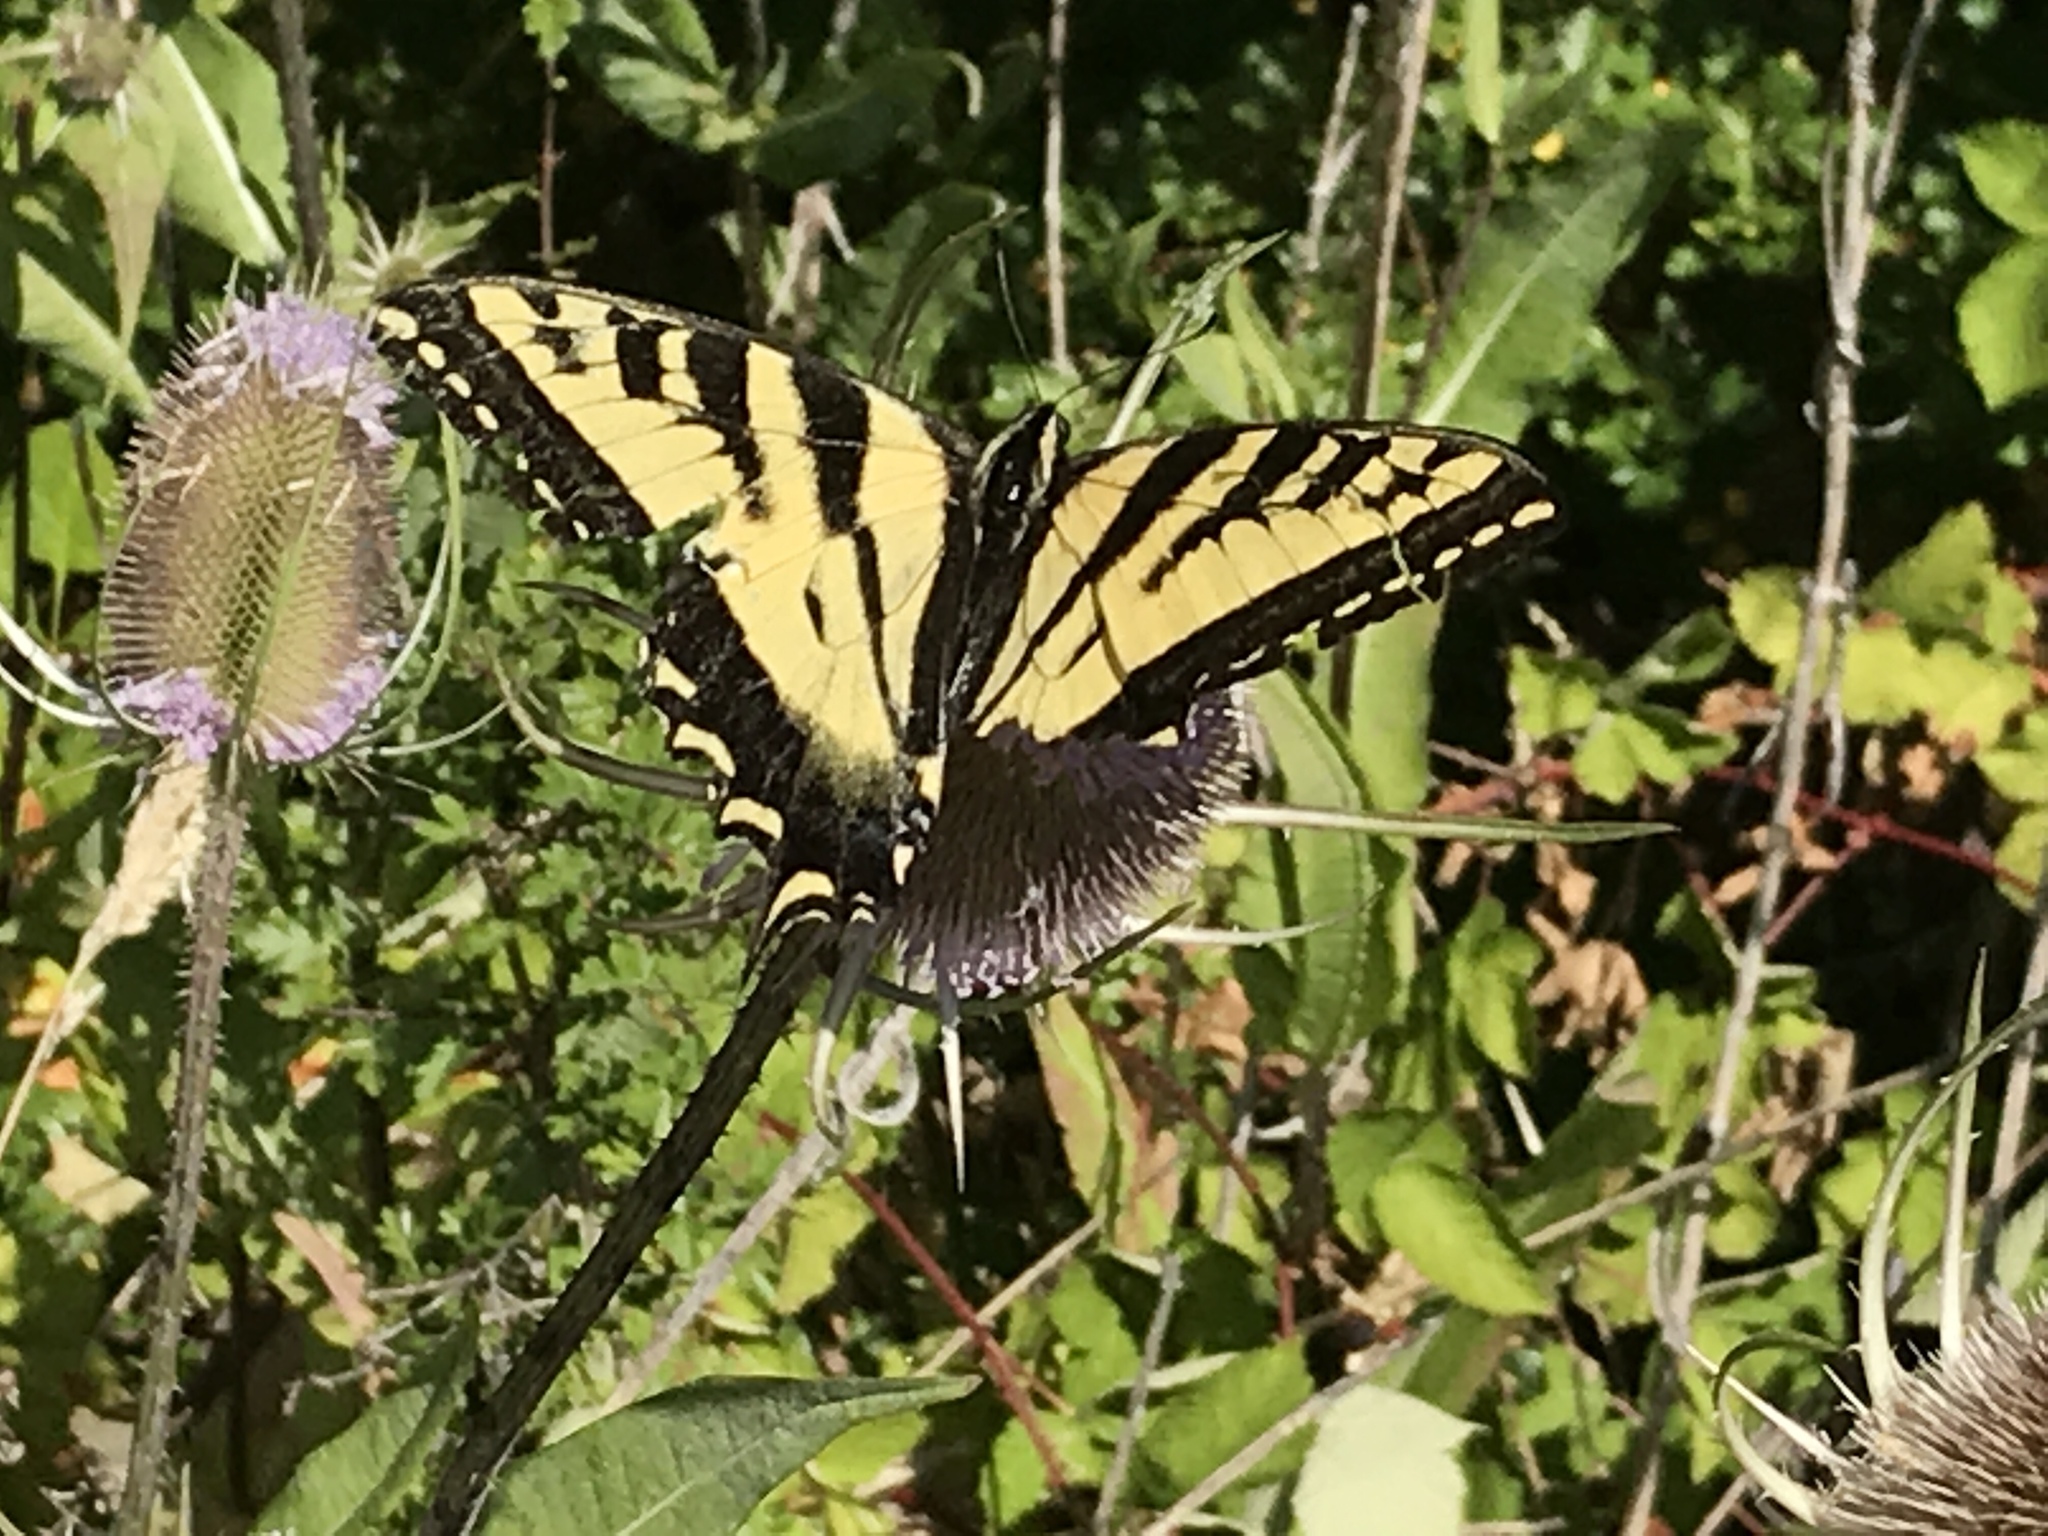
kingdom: Animalia
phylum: Arthropoda
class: Insecta
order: Lepidoptera
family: Papilionidae
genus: Papilio
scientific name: Papilio rutulus
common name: Western tiger swallowtail
